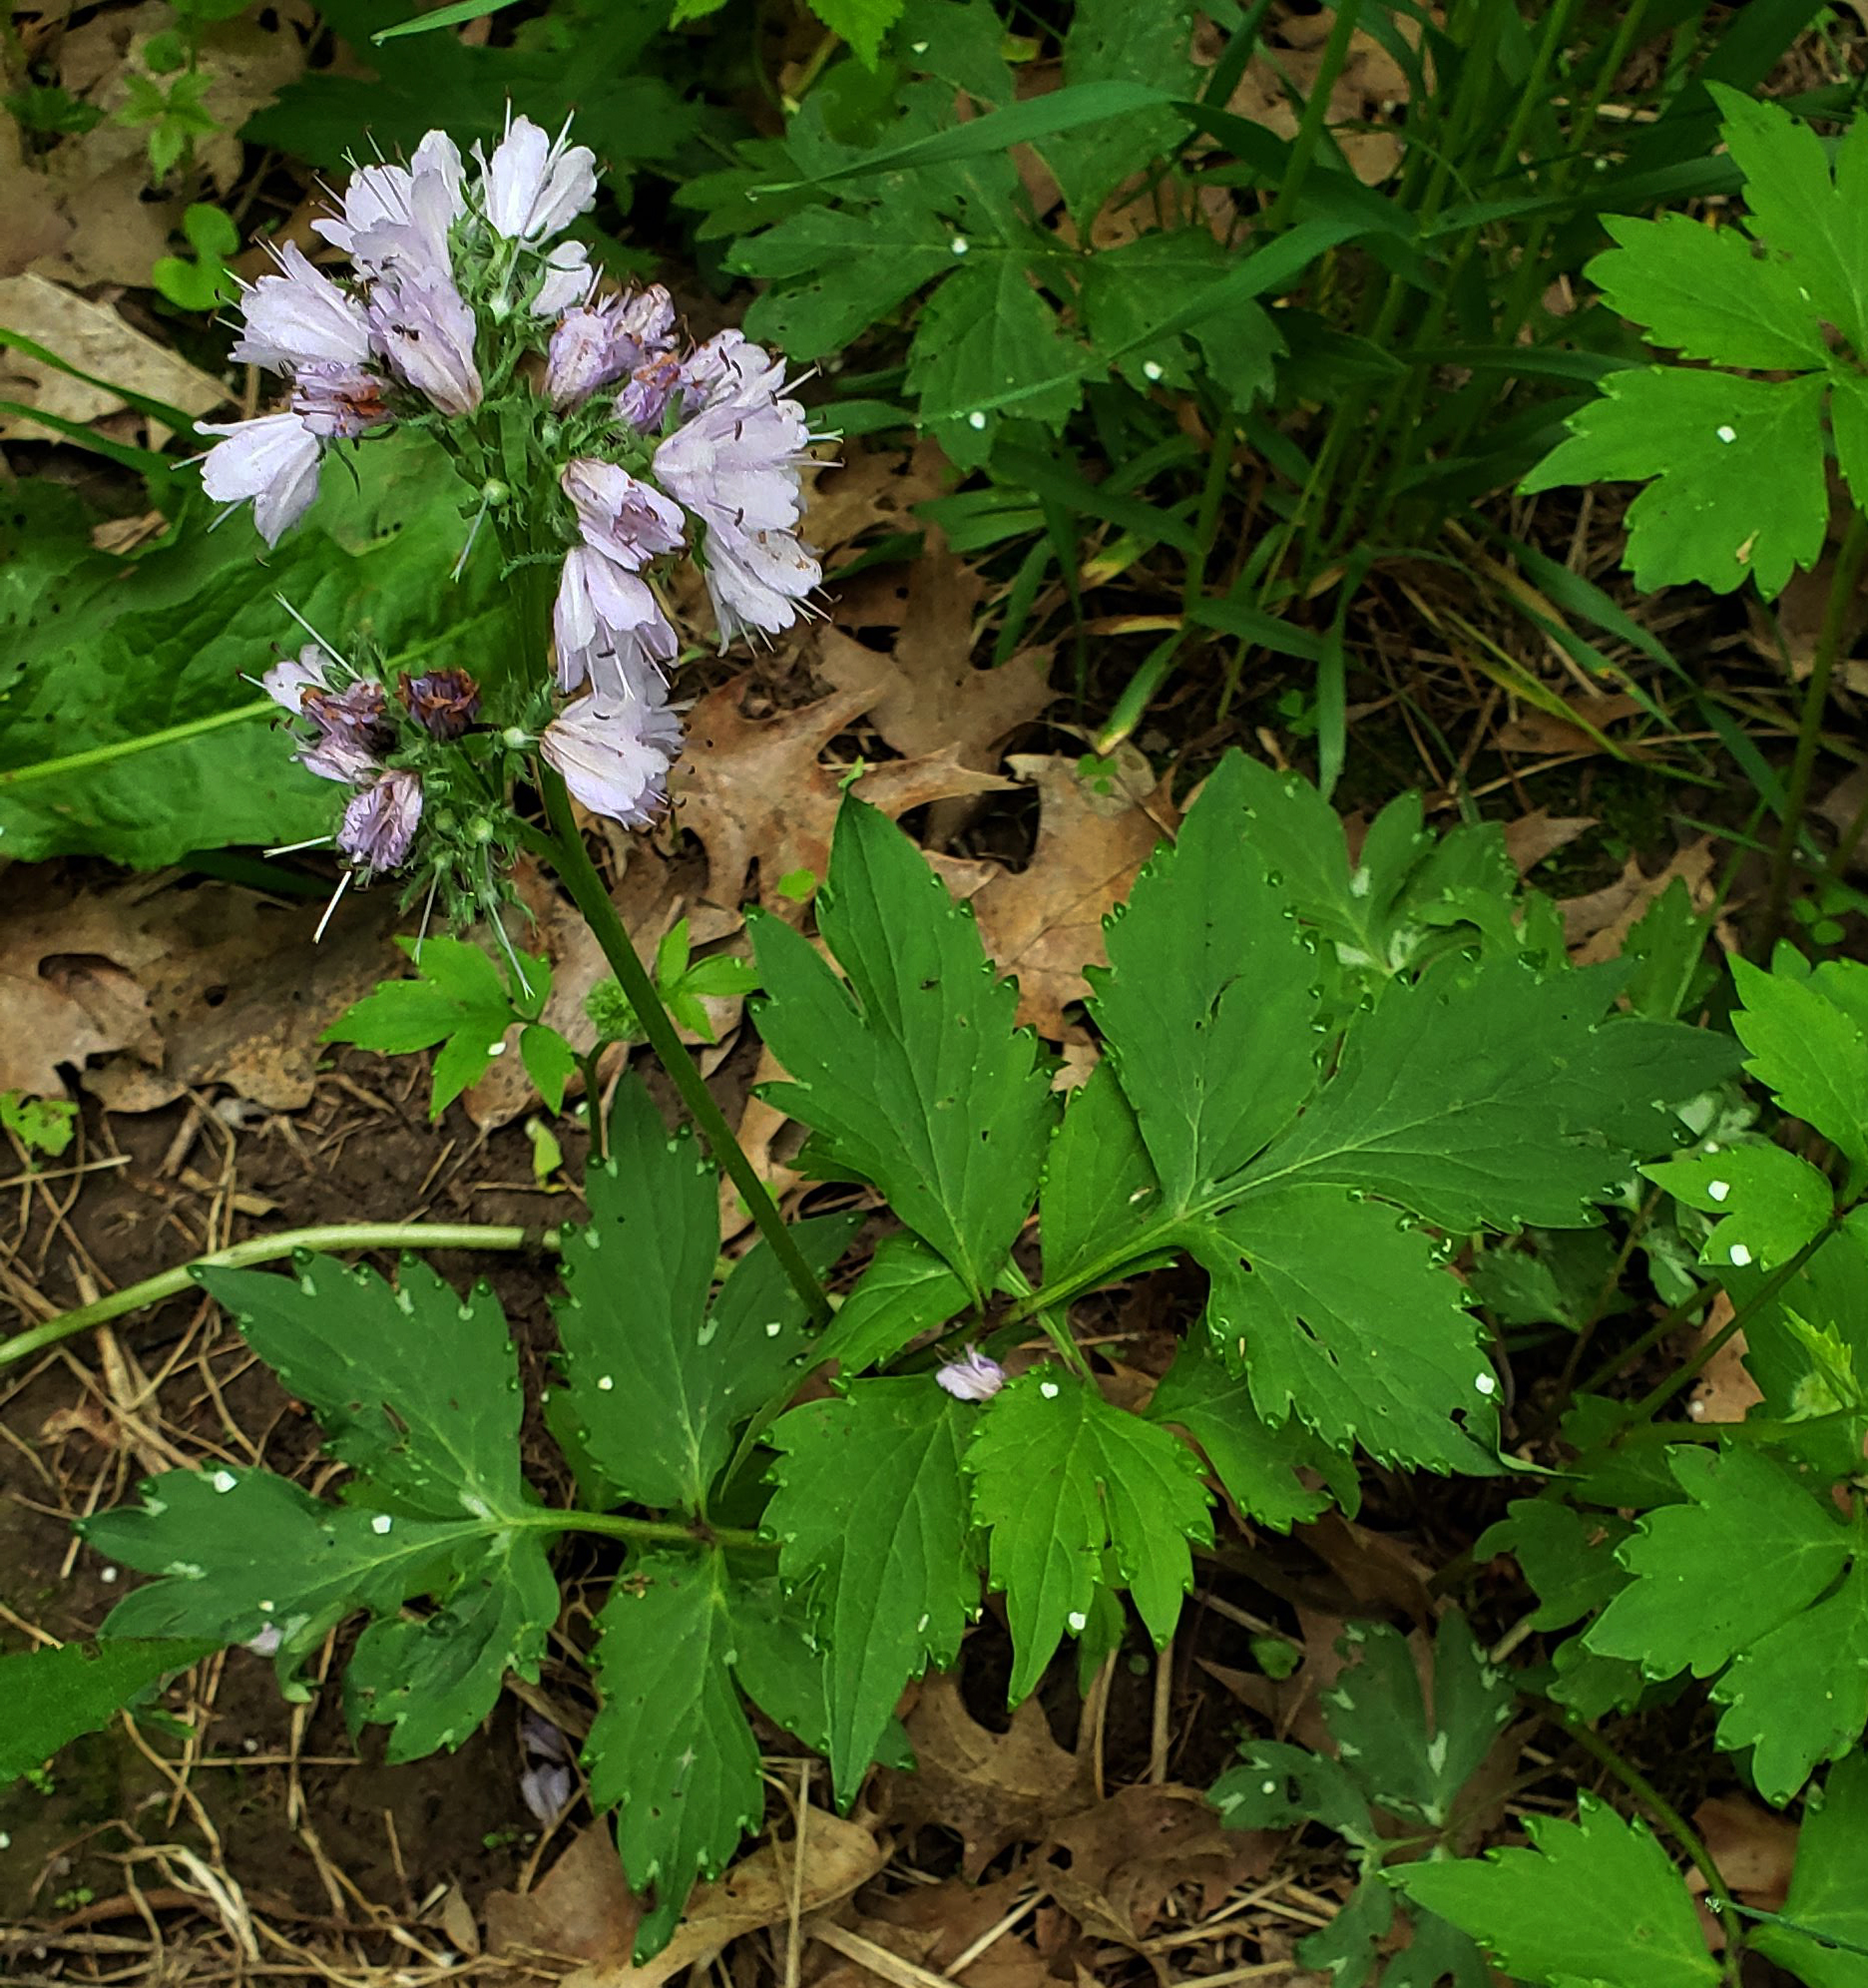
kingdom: Plantae
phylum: Tracheophyta
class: Magnoliopsida
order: Boraginales
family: Hydrophyllaceae
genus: Hydrophyllum
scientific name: Hydrophyllum virginianum
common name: Virginia waterleaf
